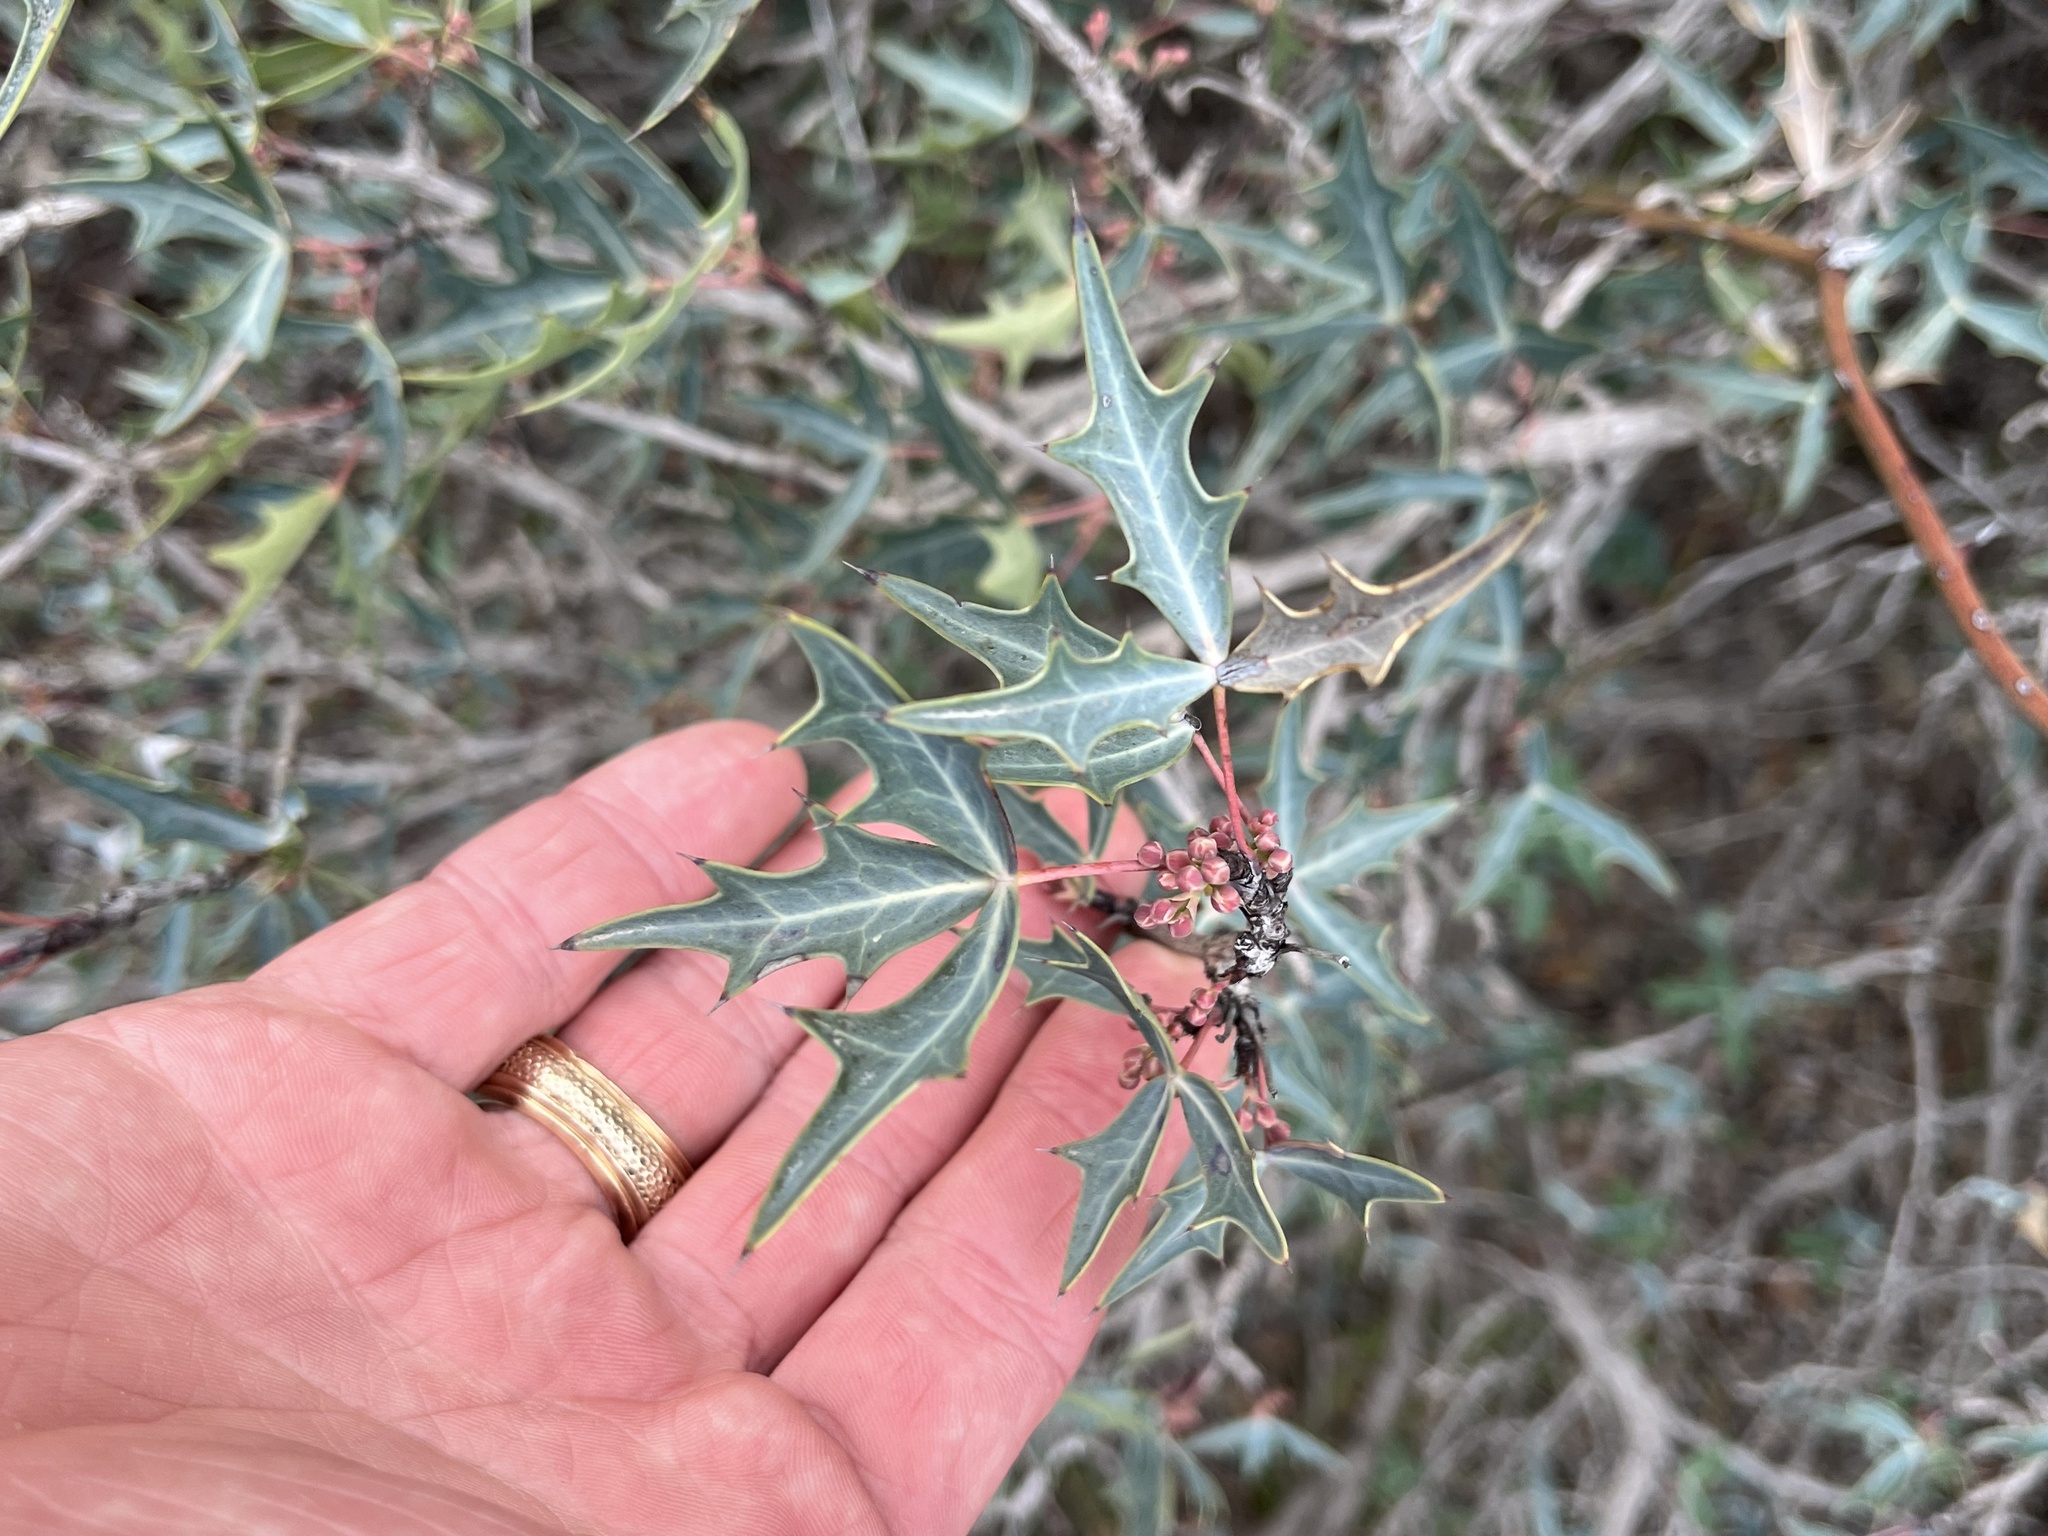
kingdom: Plantae
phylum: Tracheophyta
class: Magnoliopsida
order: Ranunculales
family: Berberidaceae
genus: Alloberberis
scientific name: Alloberberis trifoliolata
